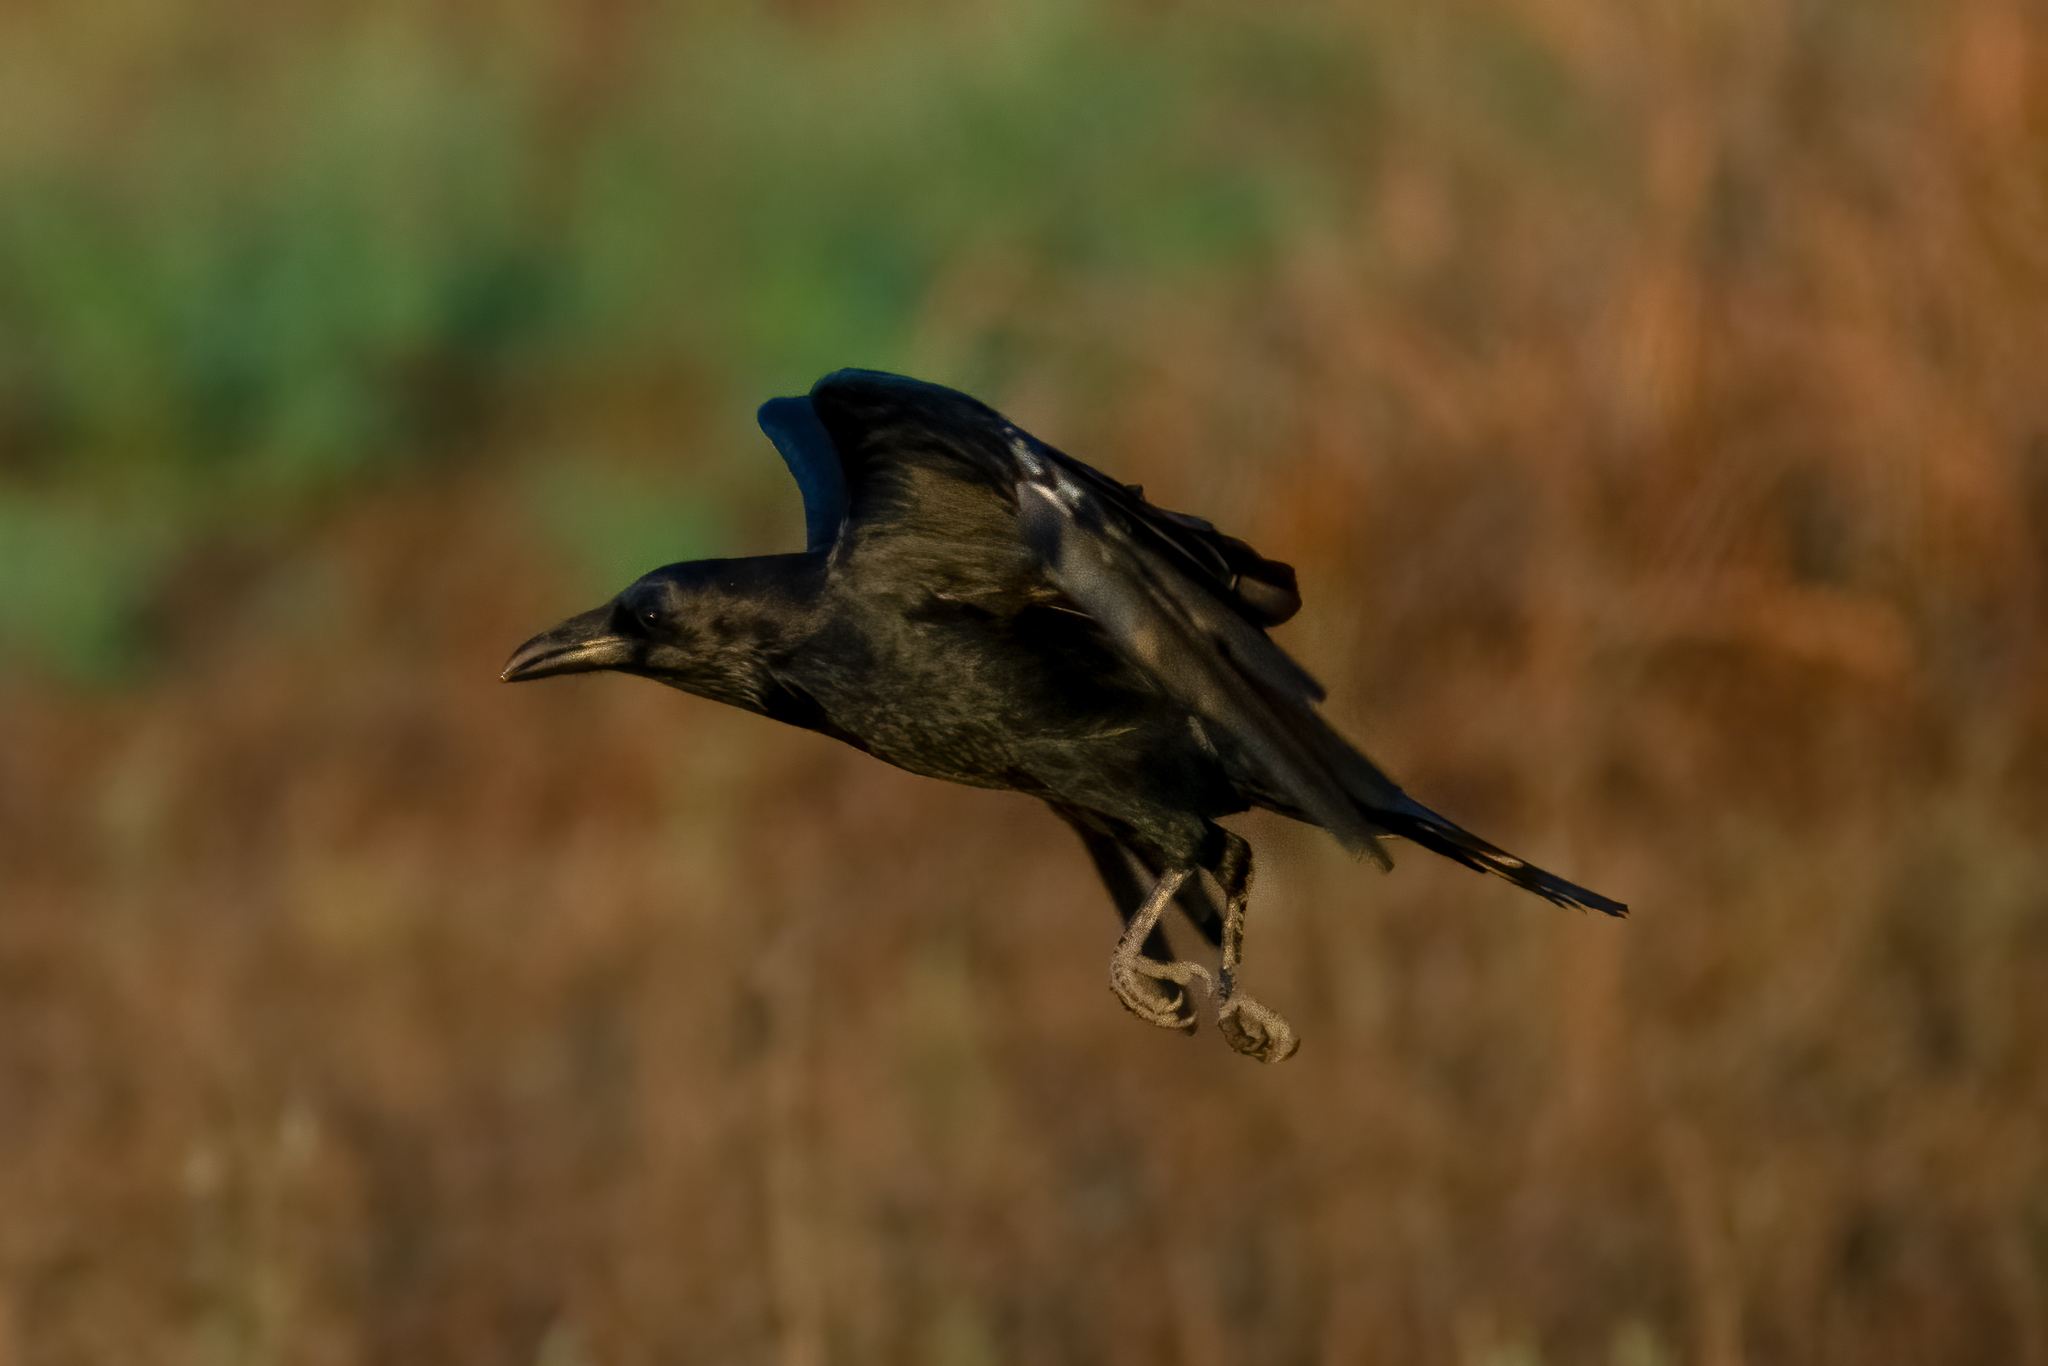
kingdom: Animalia
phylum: Chordata
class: Aves
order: Passeriformes
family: Corvidae
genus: Corvus
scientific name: Corvus corax
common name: Common raven
